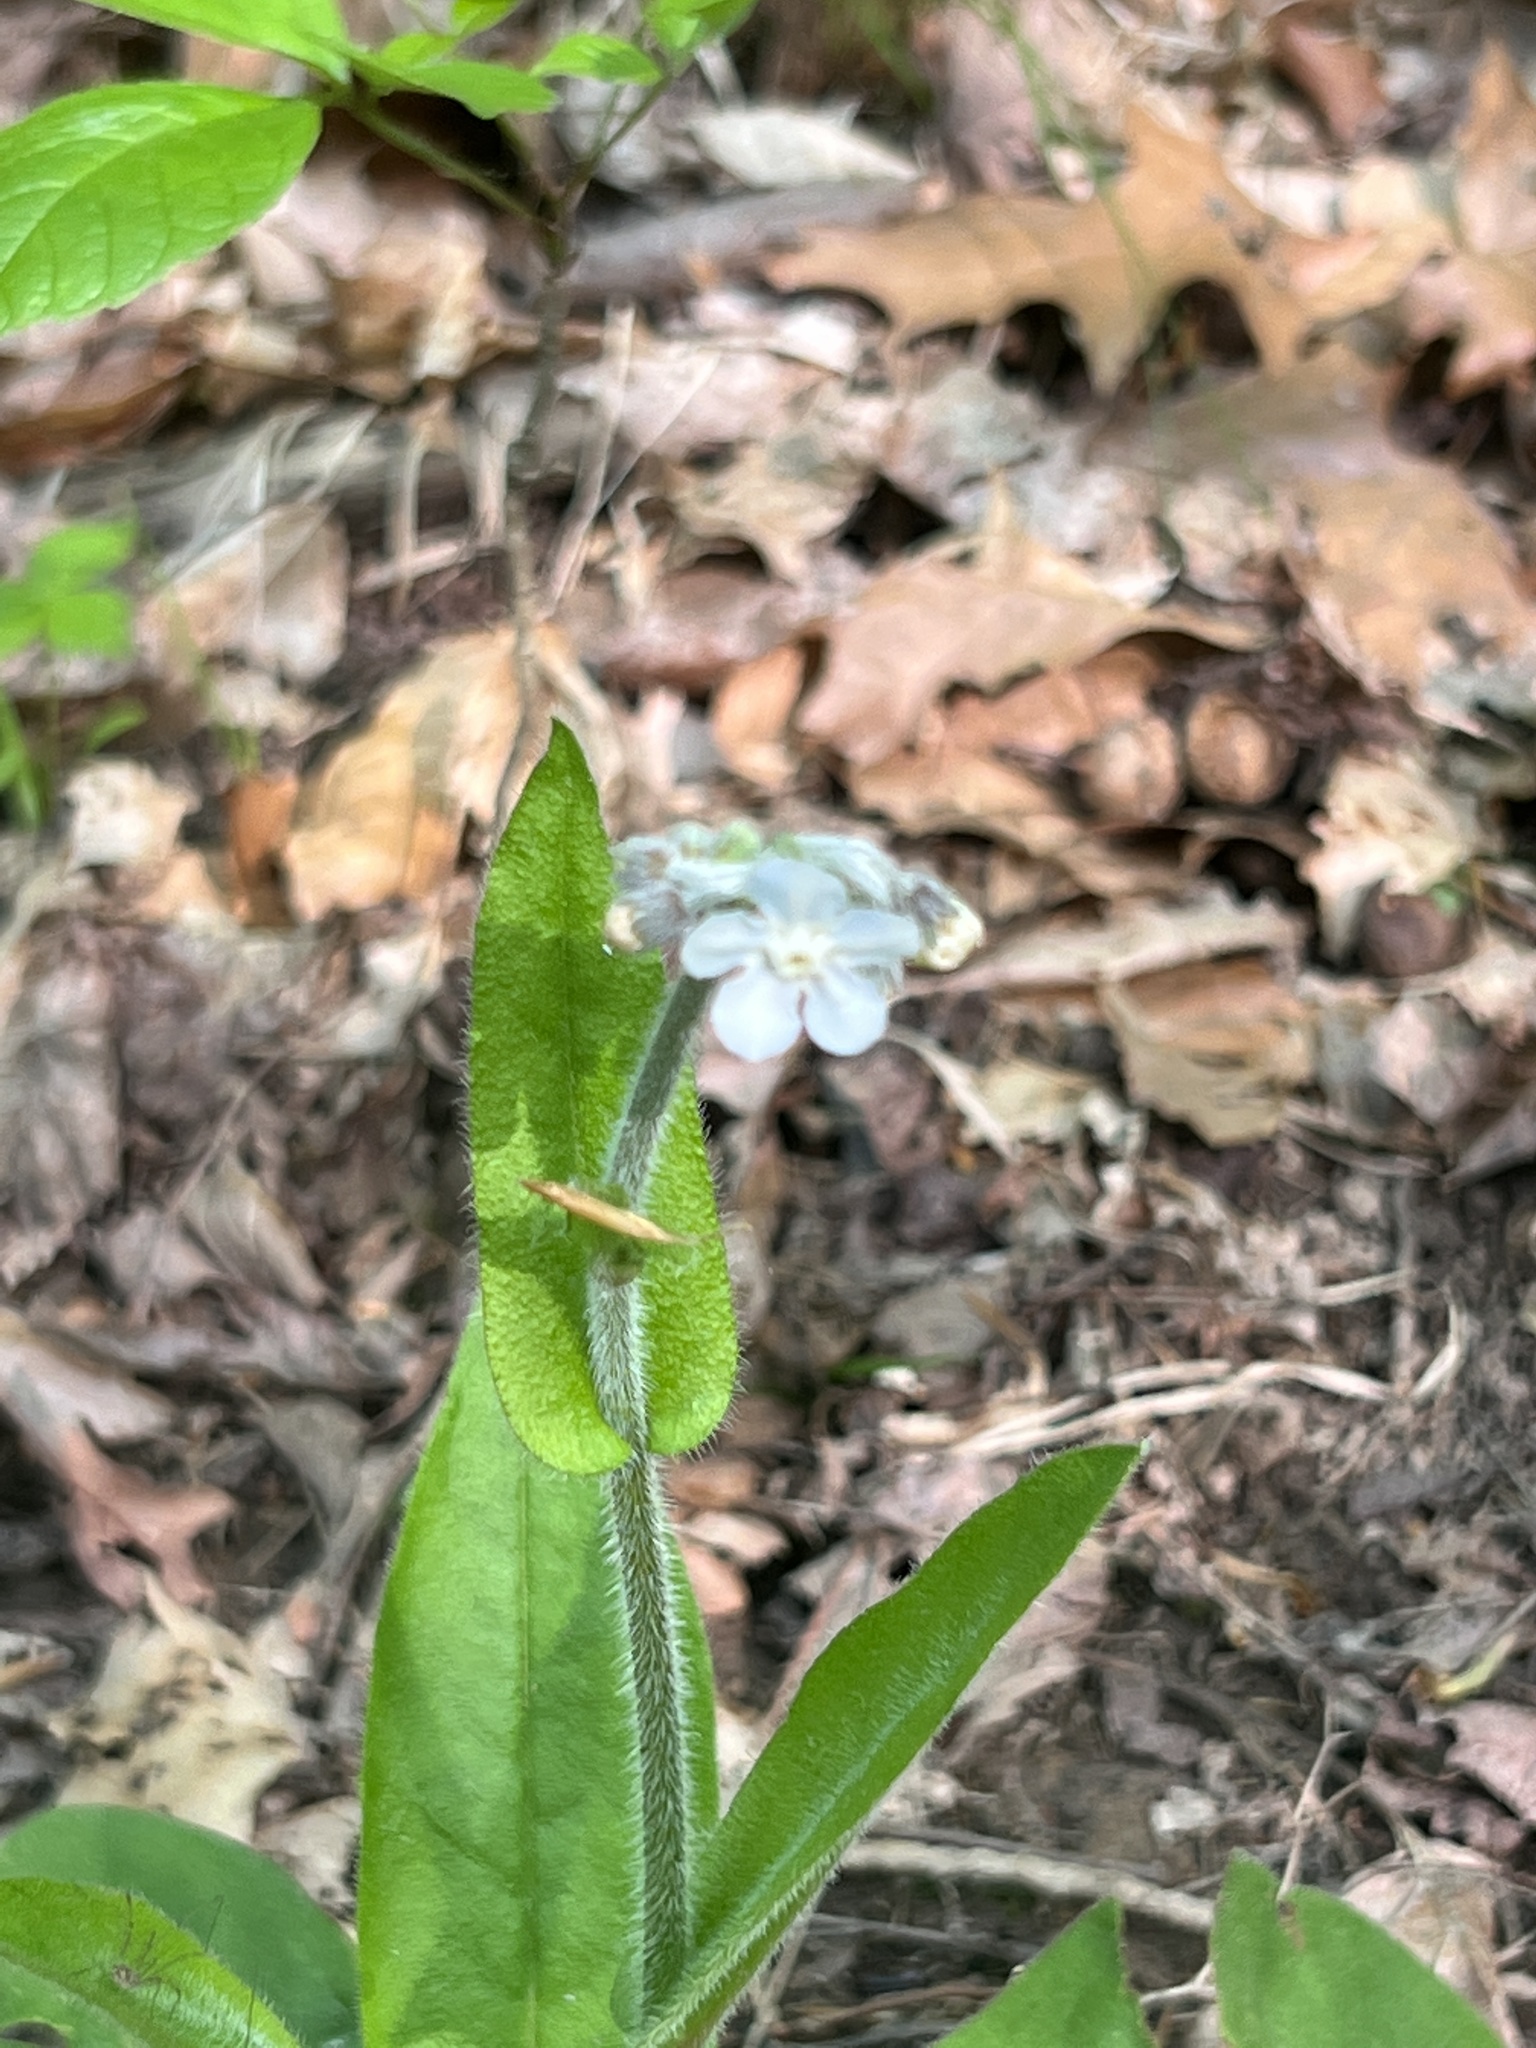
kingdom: Plantae
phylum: Tracheophyta
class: Magnoliopsida
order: Boraginales
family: Boraginaceae
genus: Andersonglossum
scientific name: Andersonglossum virginianum
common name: Wild comfrey
